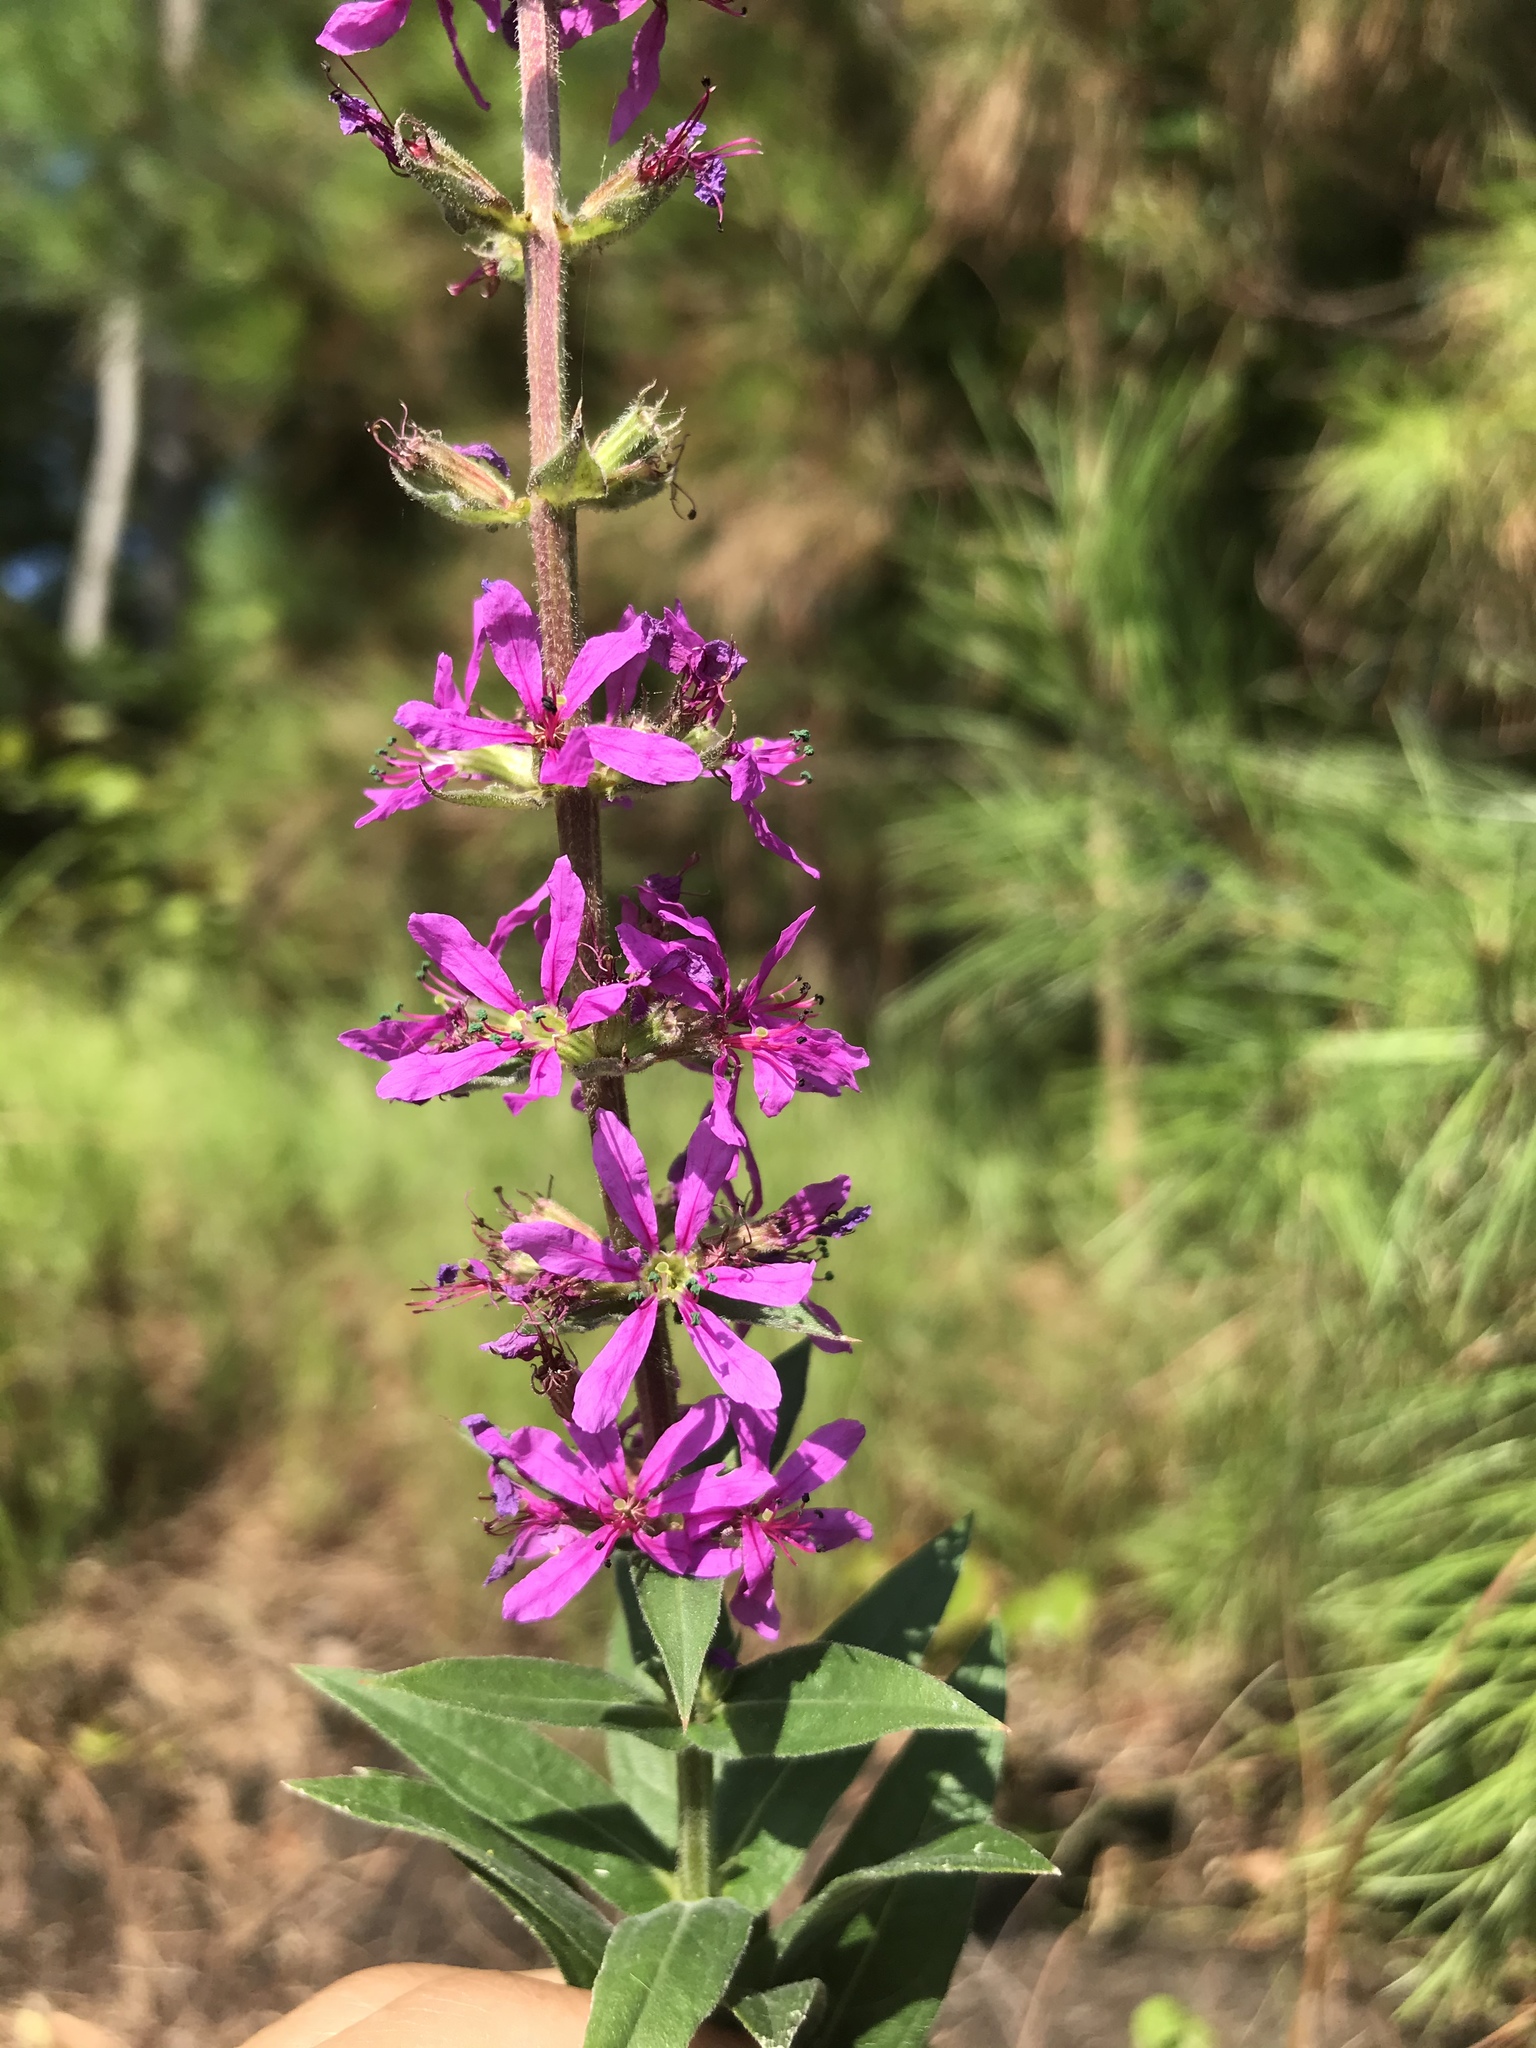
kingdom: Plantae
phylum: Tracheophyta
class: Magnoliopsida
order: Myrtales
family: Lythraceae
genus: Lythrum
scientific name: Lythrum salicaria
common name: Purple loosestrife
